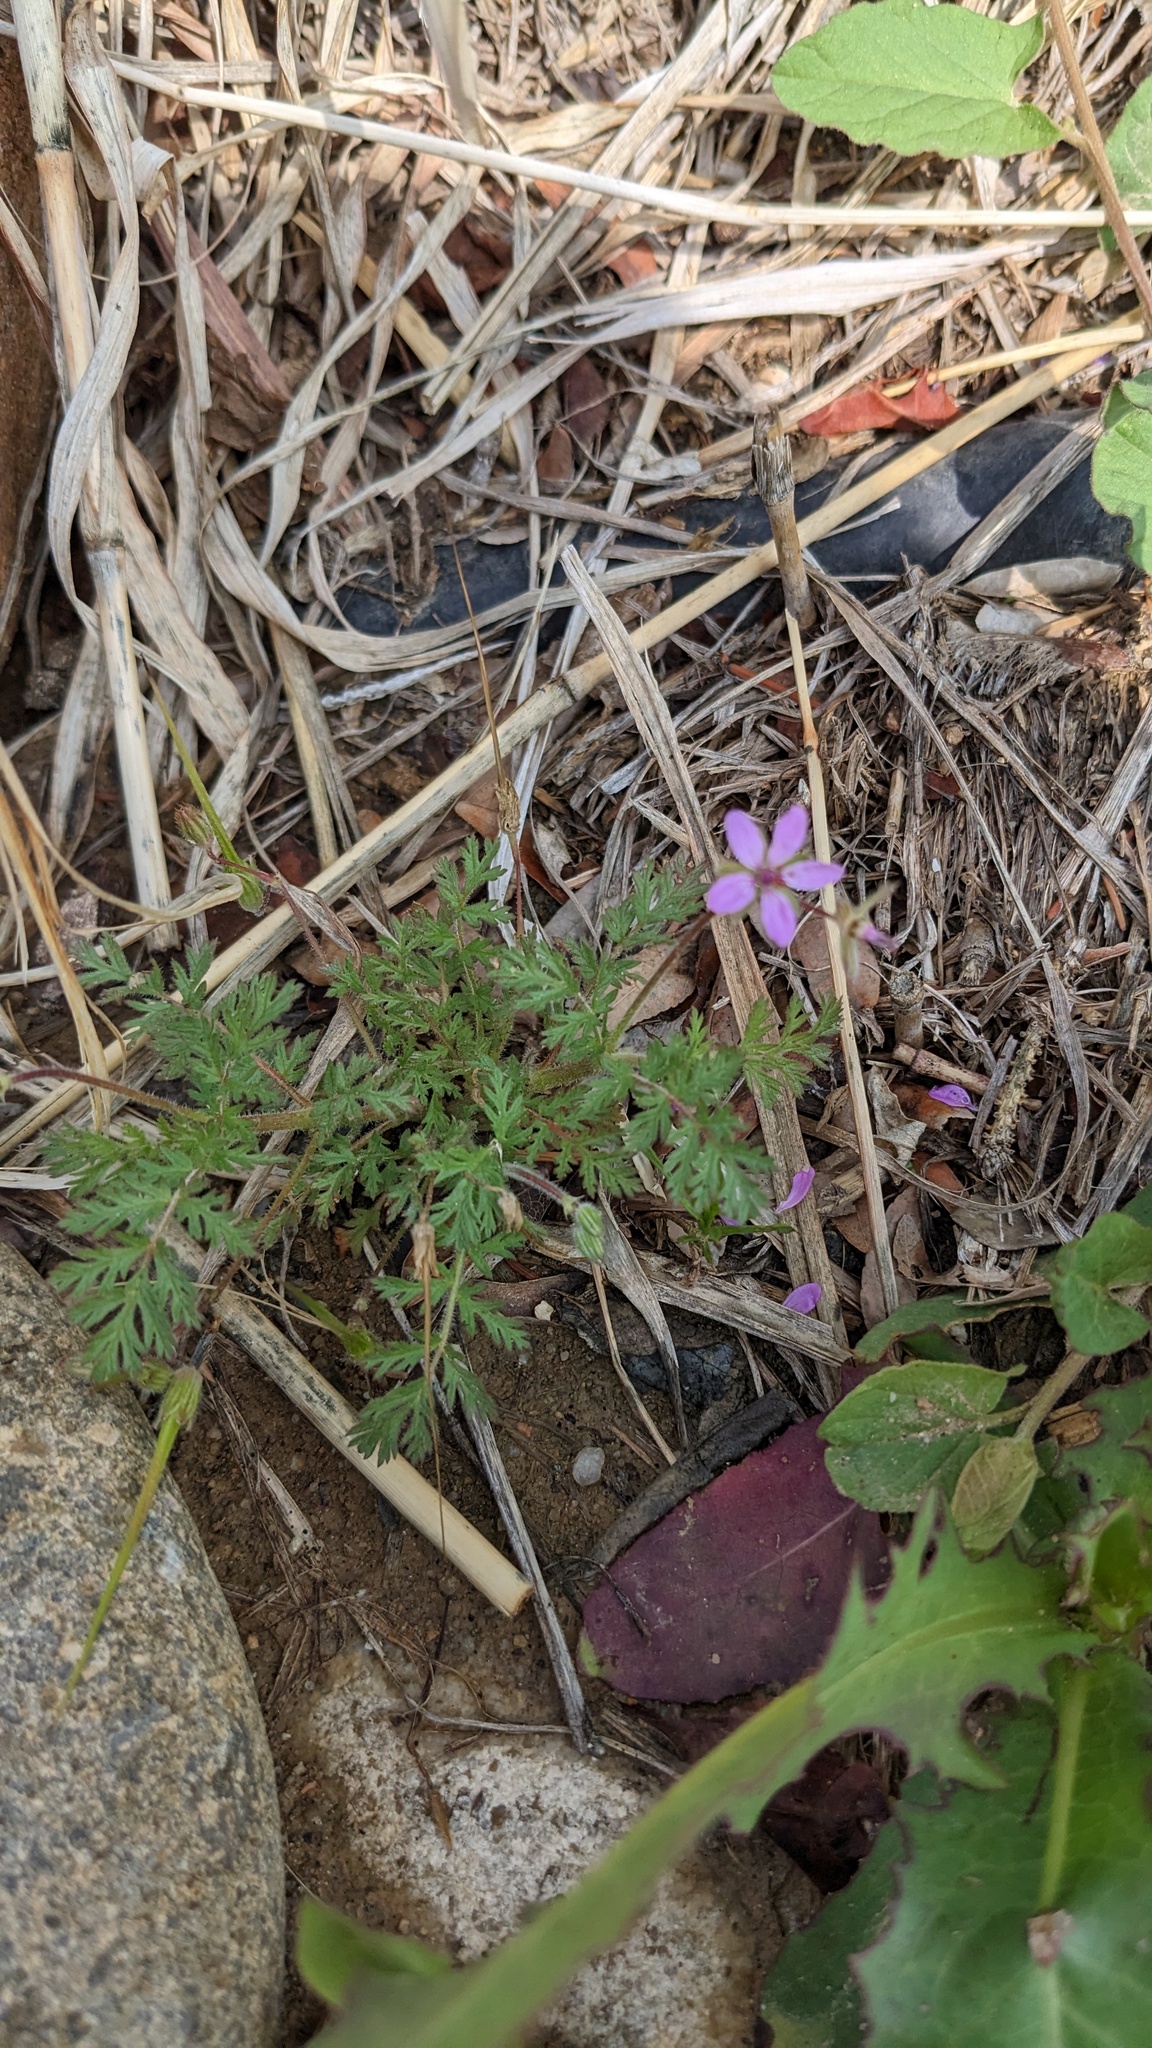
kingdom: Plantae
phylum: Tracheophyta
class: Magnoliopsida
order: Geraniales
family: Geraniaceae
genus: Erodium
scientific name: Erodium cicutarium
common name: Common stork's-bill
